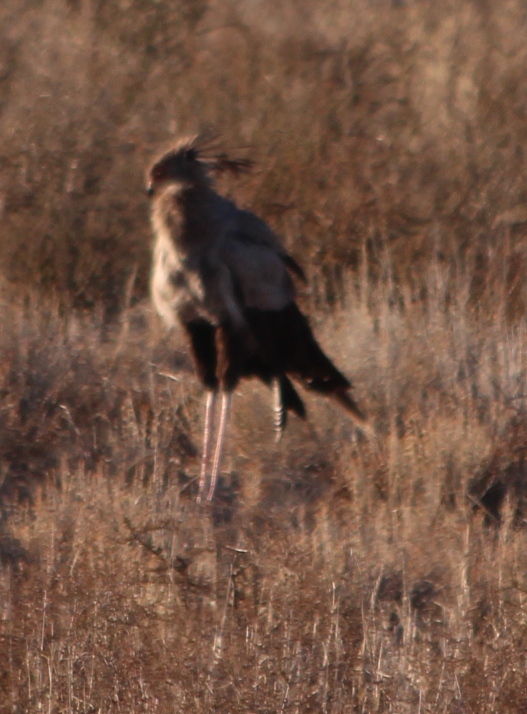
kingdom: Animalia
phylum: Chordata
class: Aves
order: Accipitriformes
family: Sagittariidae
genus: Sagittarius
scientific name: Sagittarius serpentarius
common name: Secretarybird
